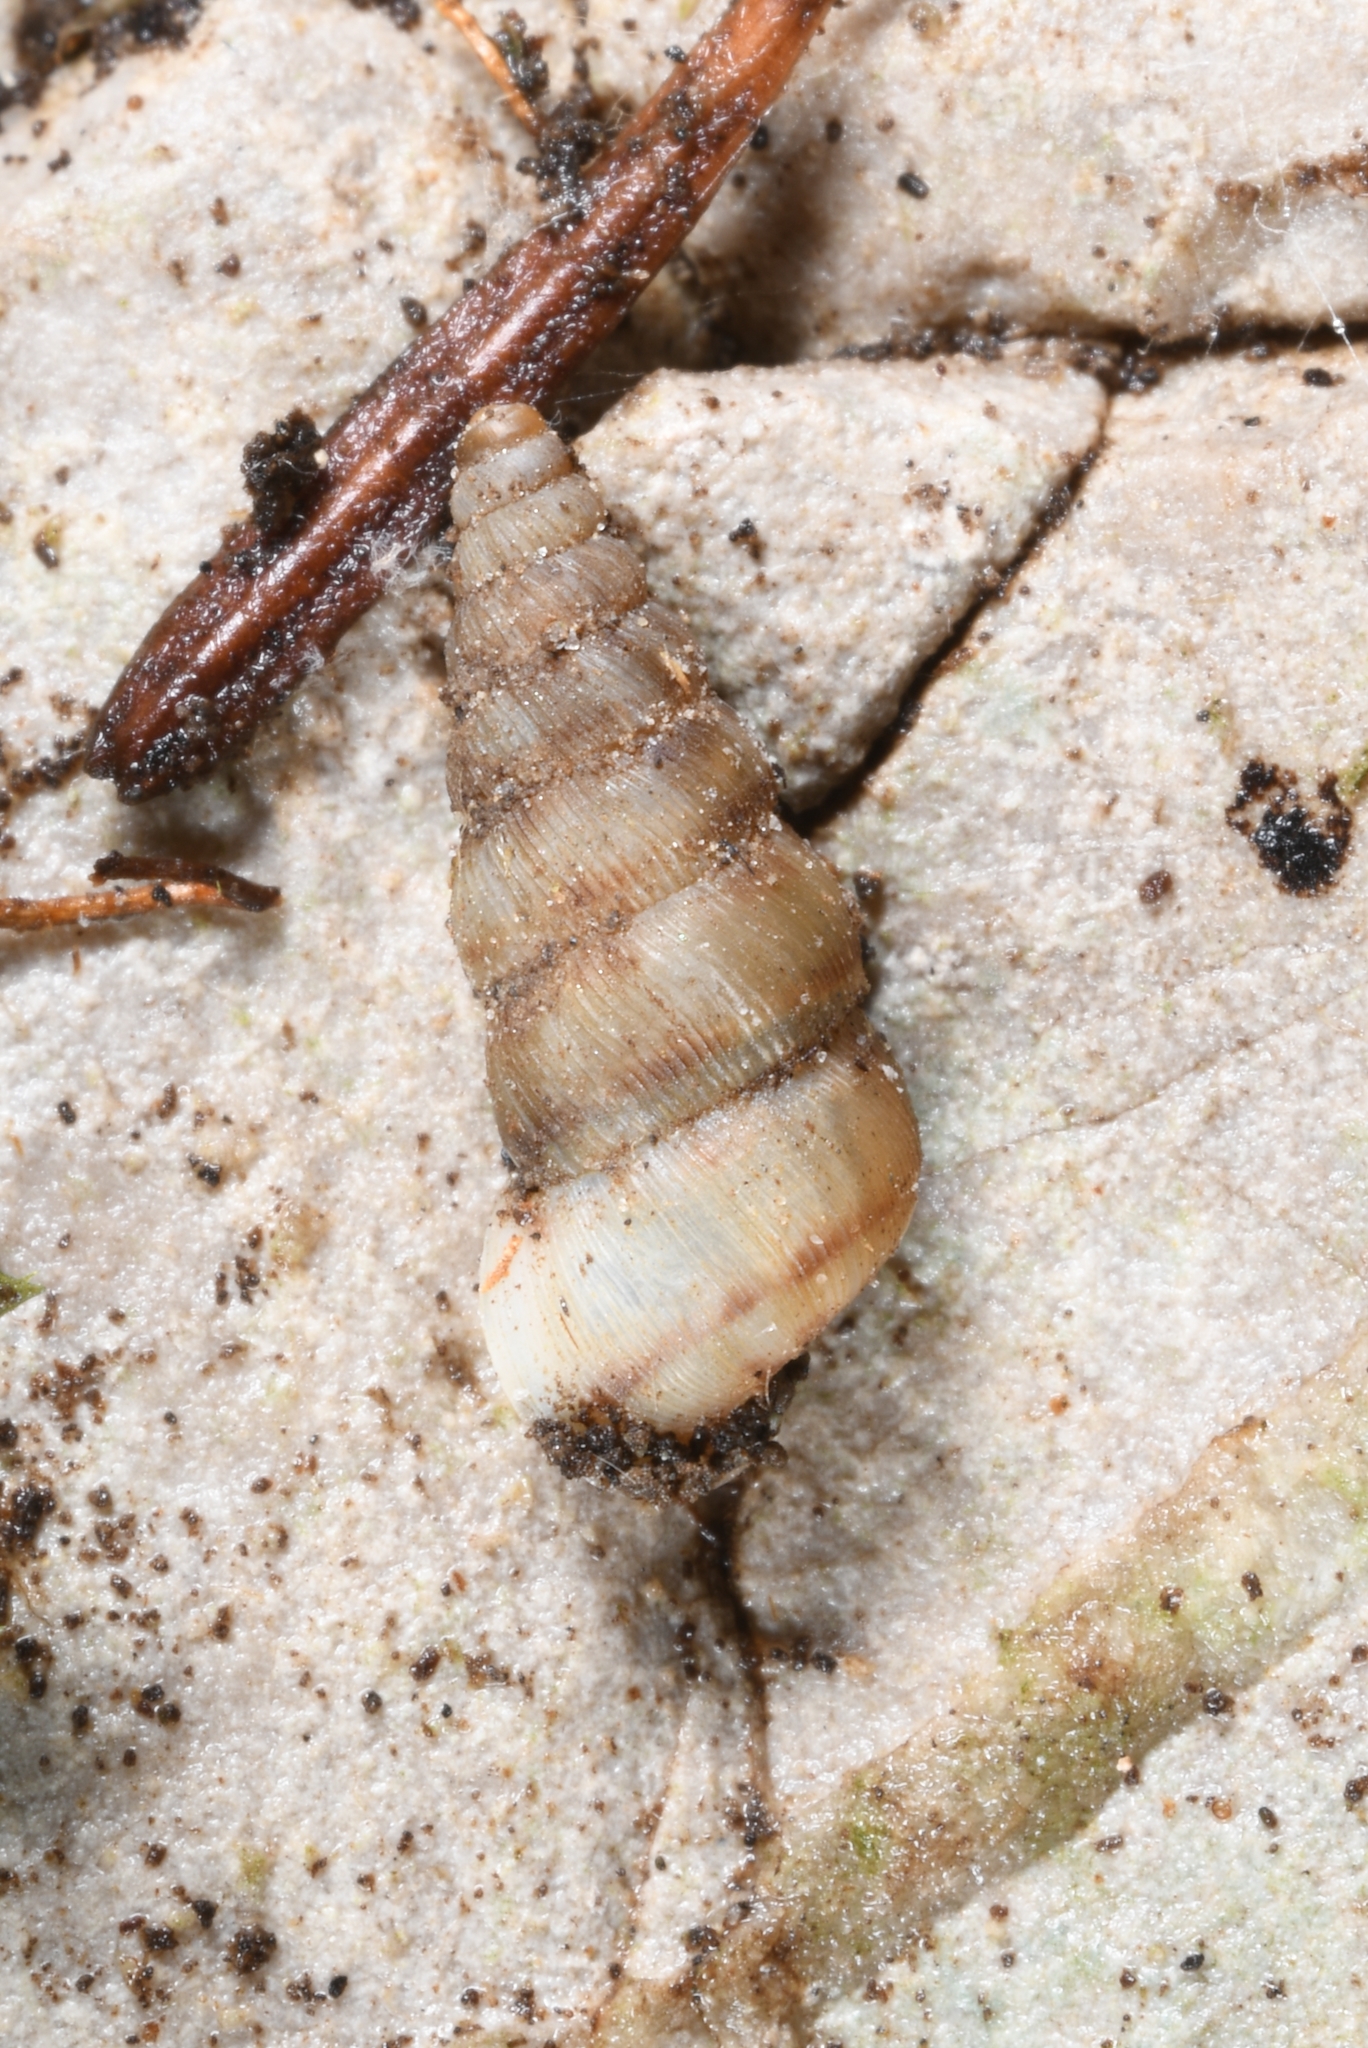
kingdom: Animalia
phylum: Mollusca
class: Gastropoda
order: Architaenioglossa
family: Cochlostomatidae
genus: Obscurella
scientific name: Obscurella aprica
